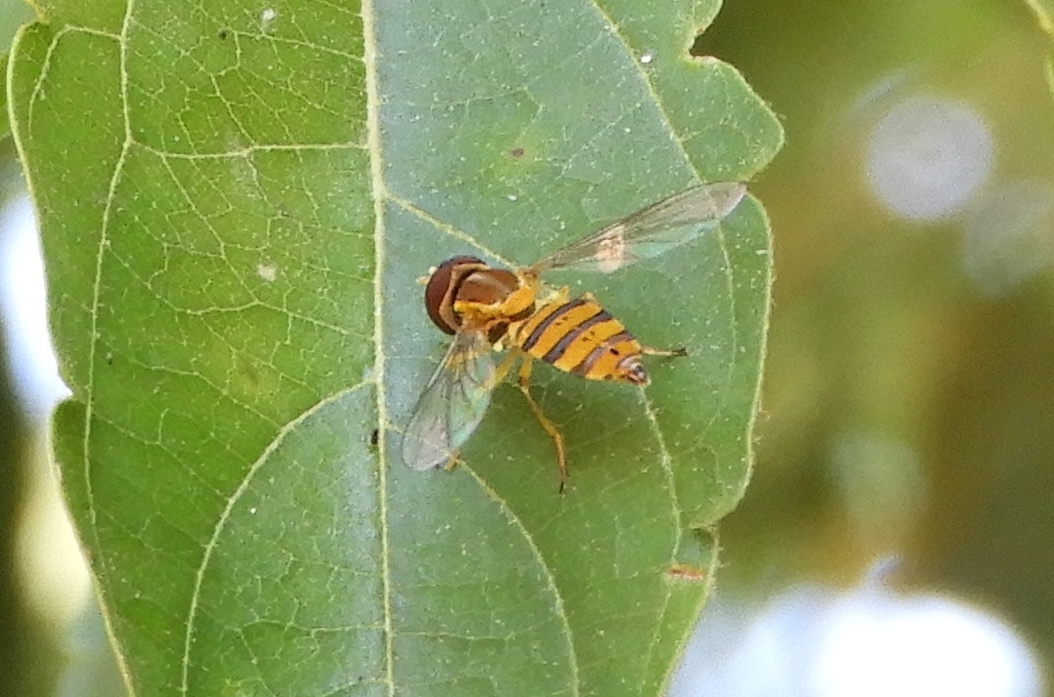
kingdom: Animalia
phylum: Arthropoda
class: Insecta
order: Diptera
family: Syrphidae
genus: Toxomerus
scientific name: Toxomerus
